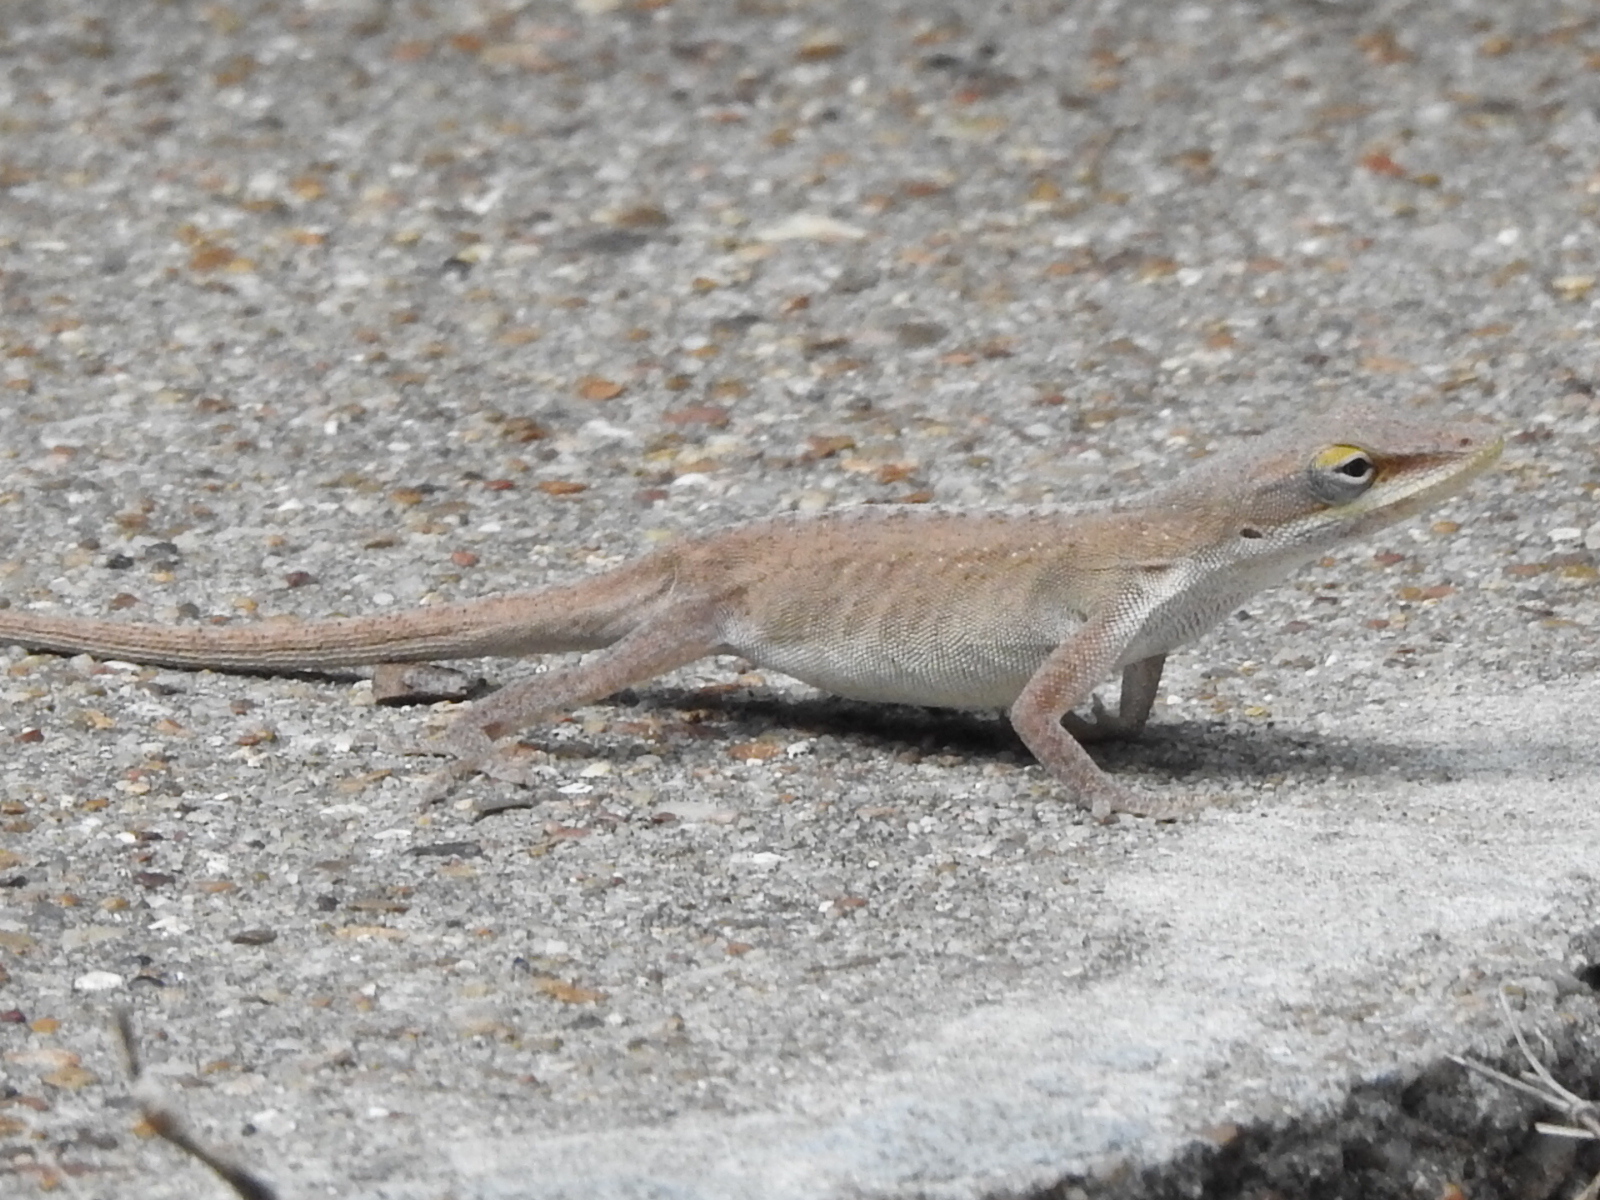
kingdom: Animalia
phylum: Chordata
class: Squamata
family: Dactyloidae
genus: Anolis
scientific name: Anolis carolinensis
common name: Green anole
